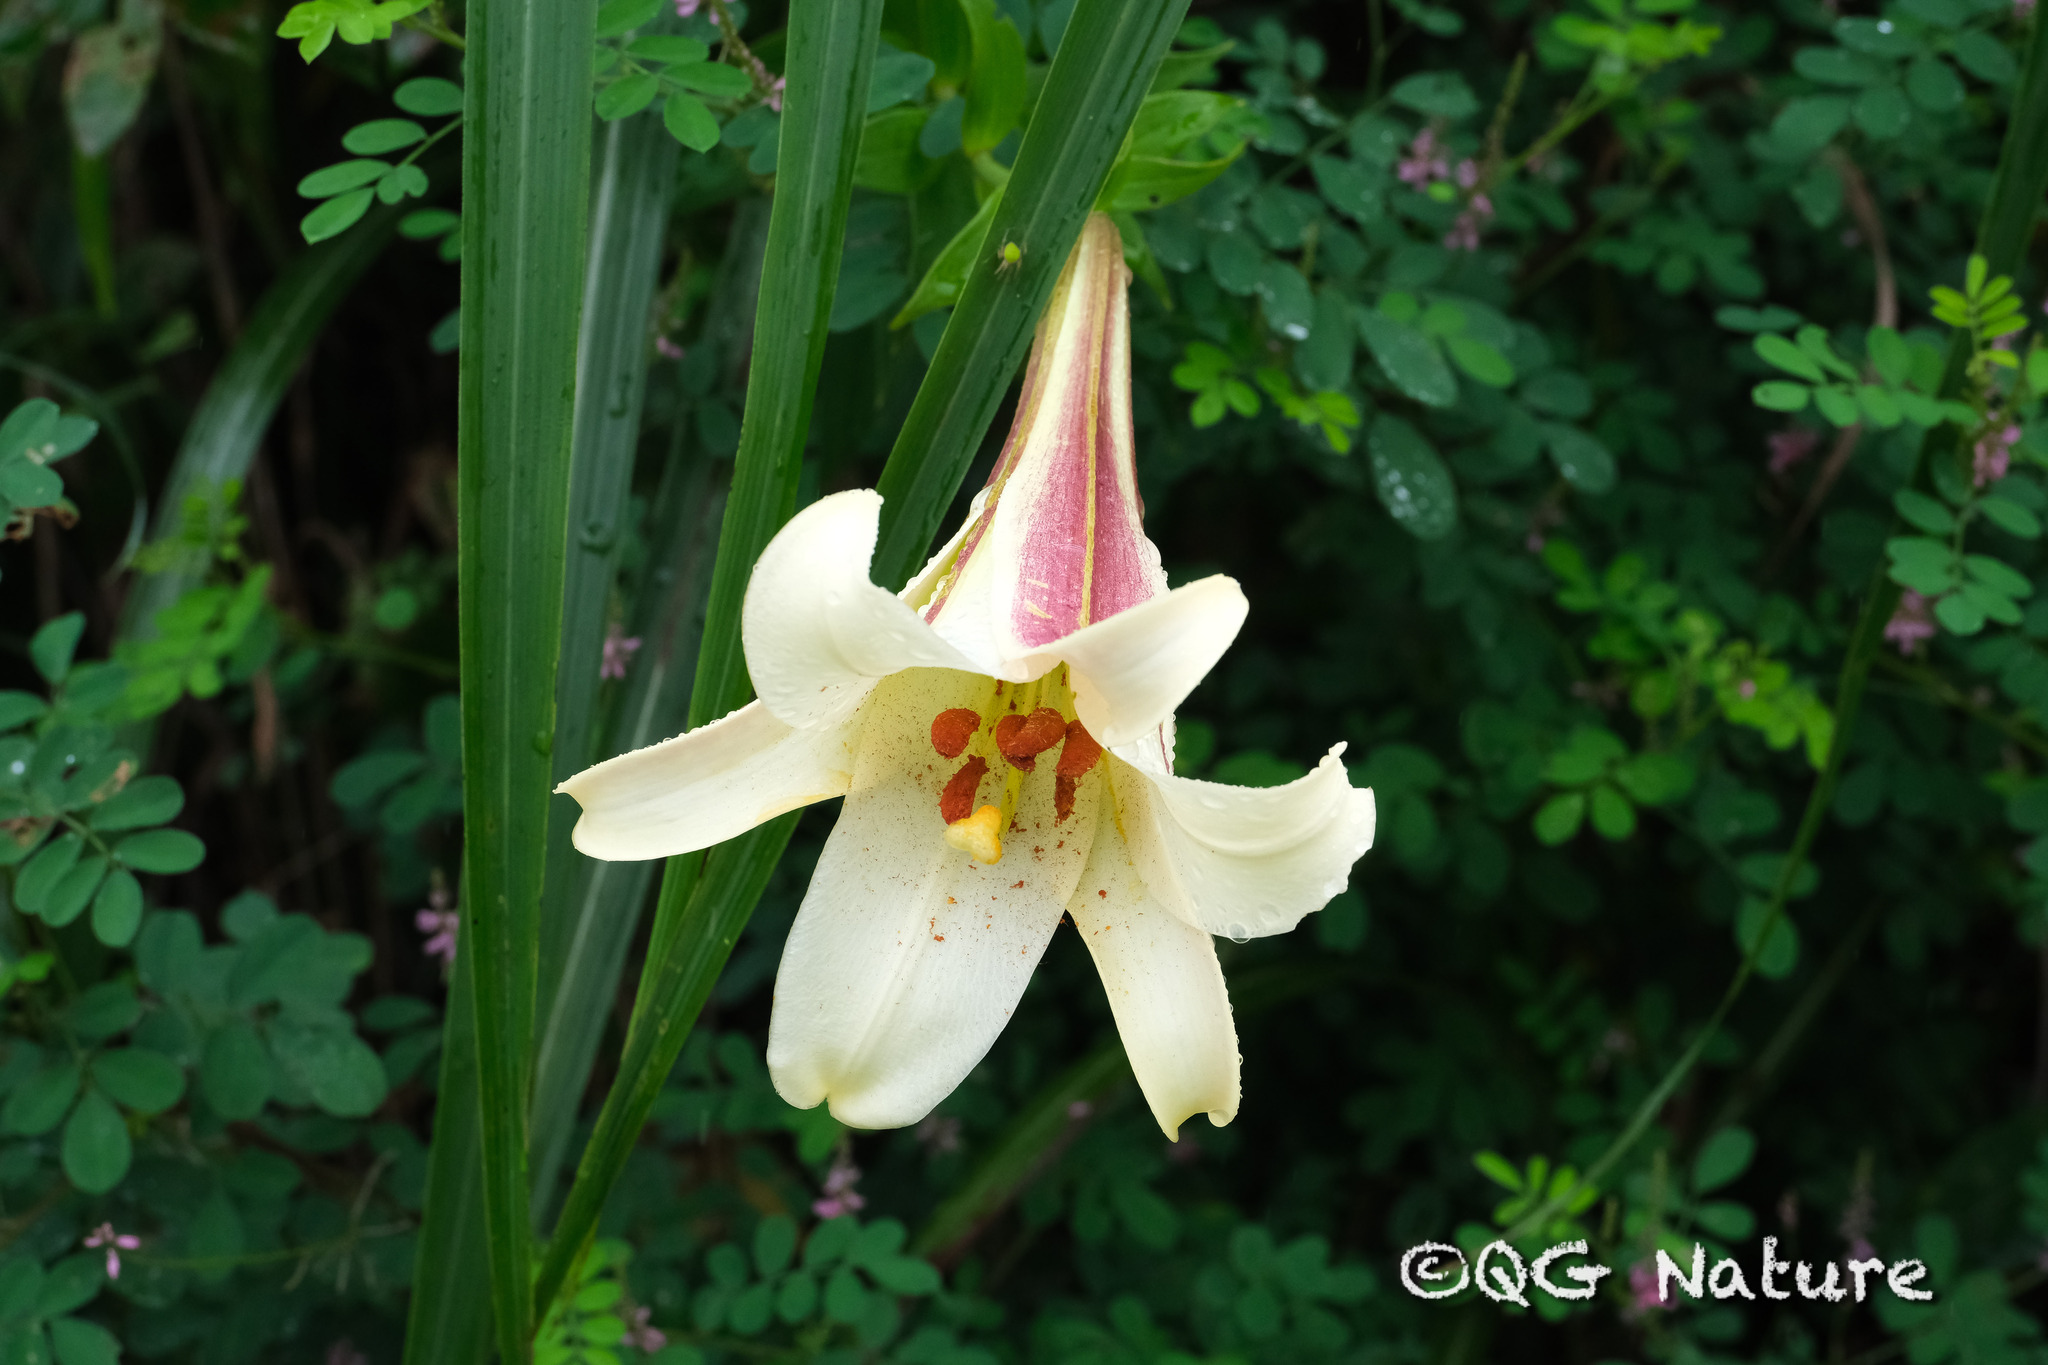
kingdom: Plantae
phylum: Tracheophyta
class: Liliopsida
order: Liliales
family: Liliaceae
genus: Lilium
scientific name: Lilium brownii
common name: Brown's lily
